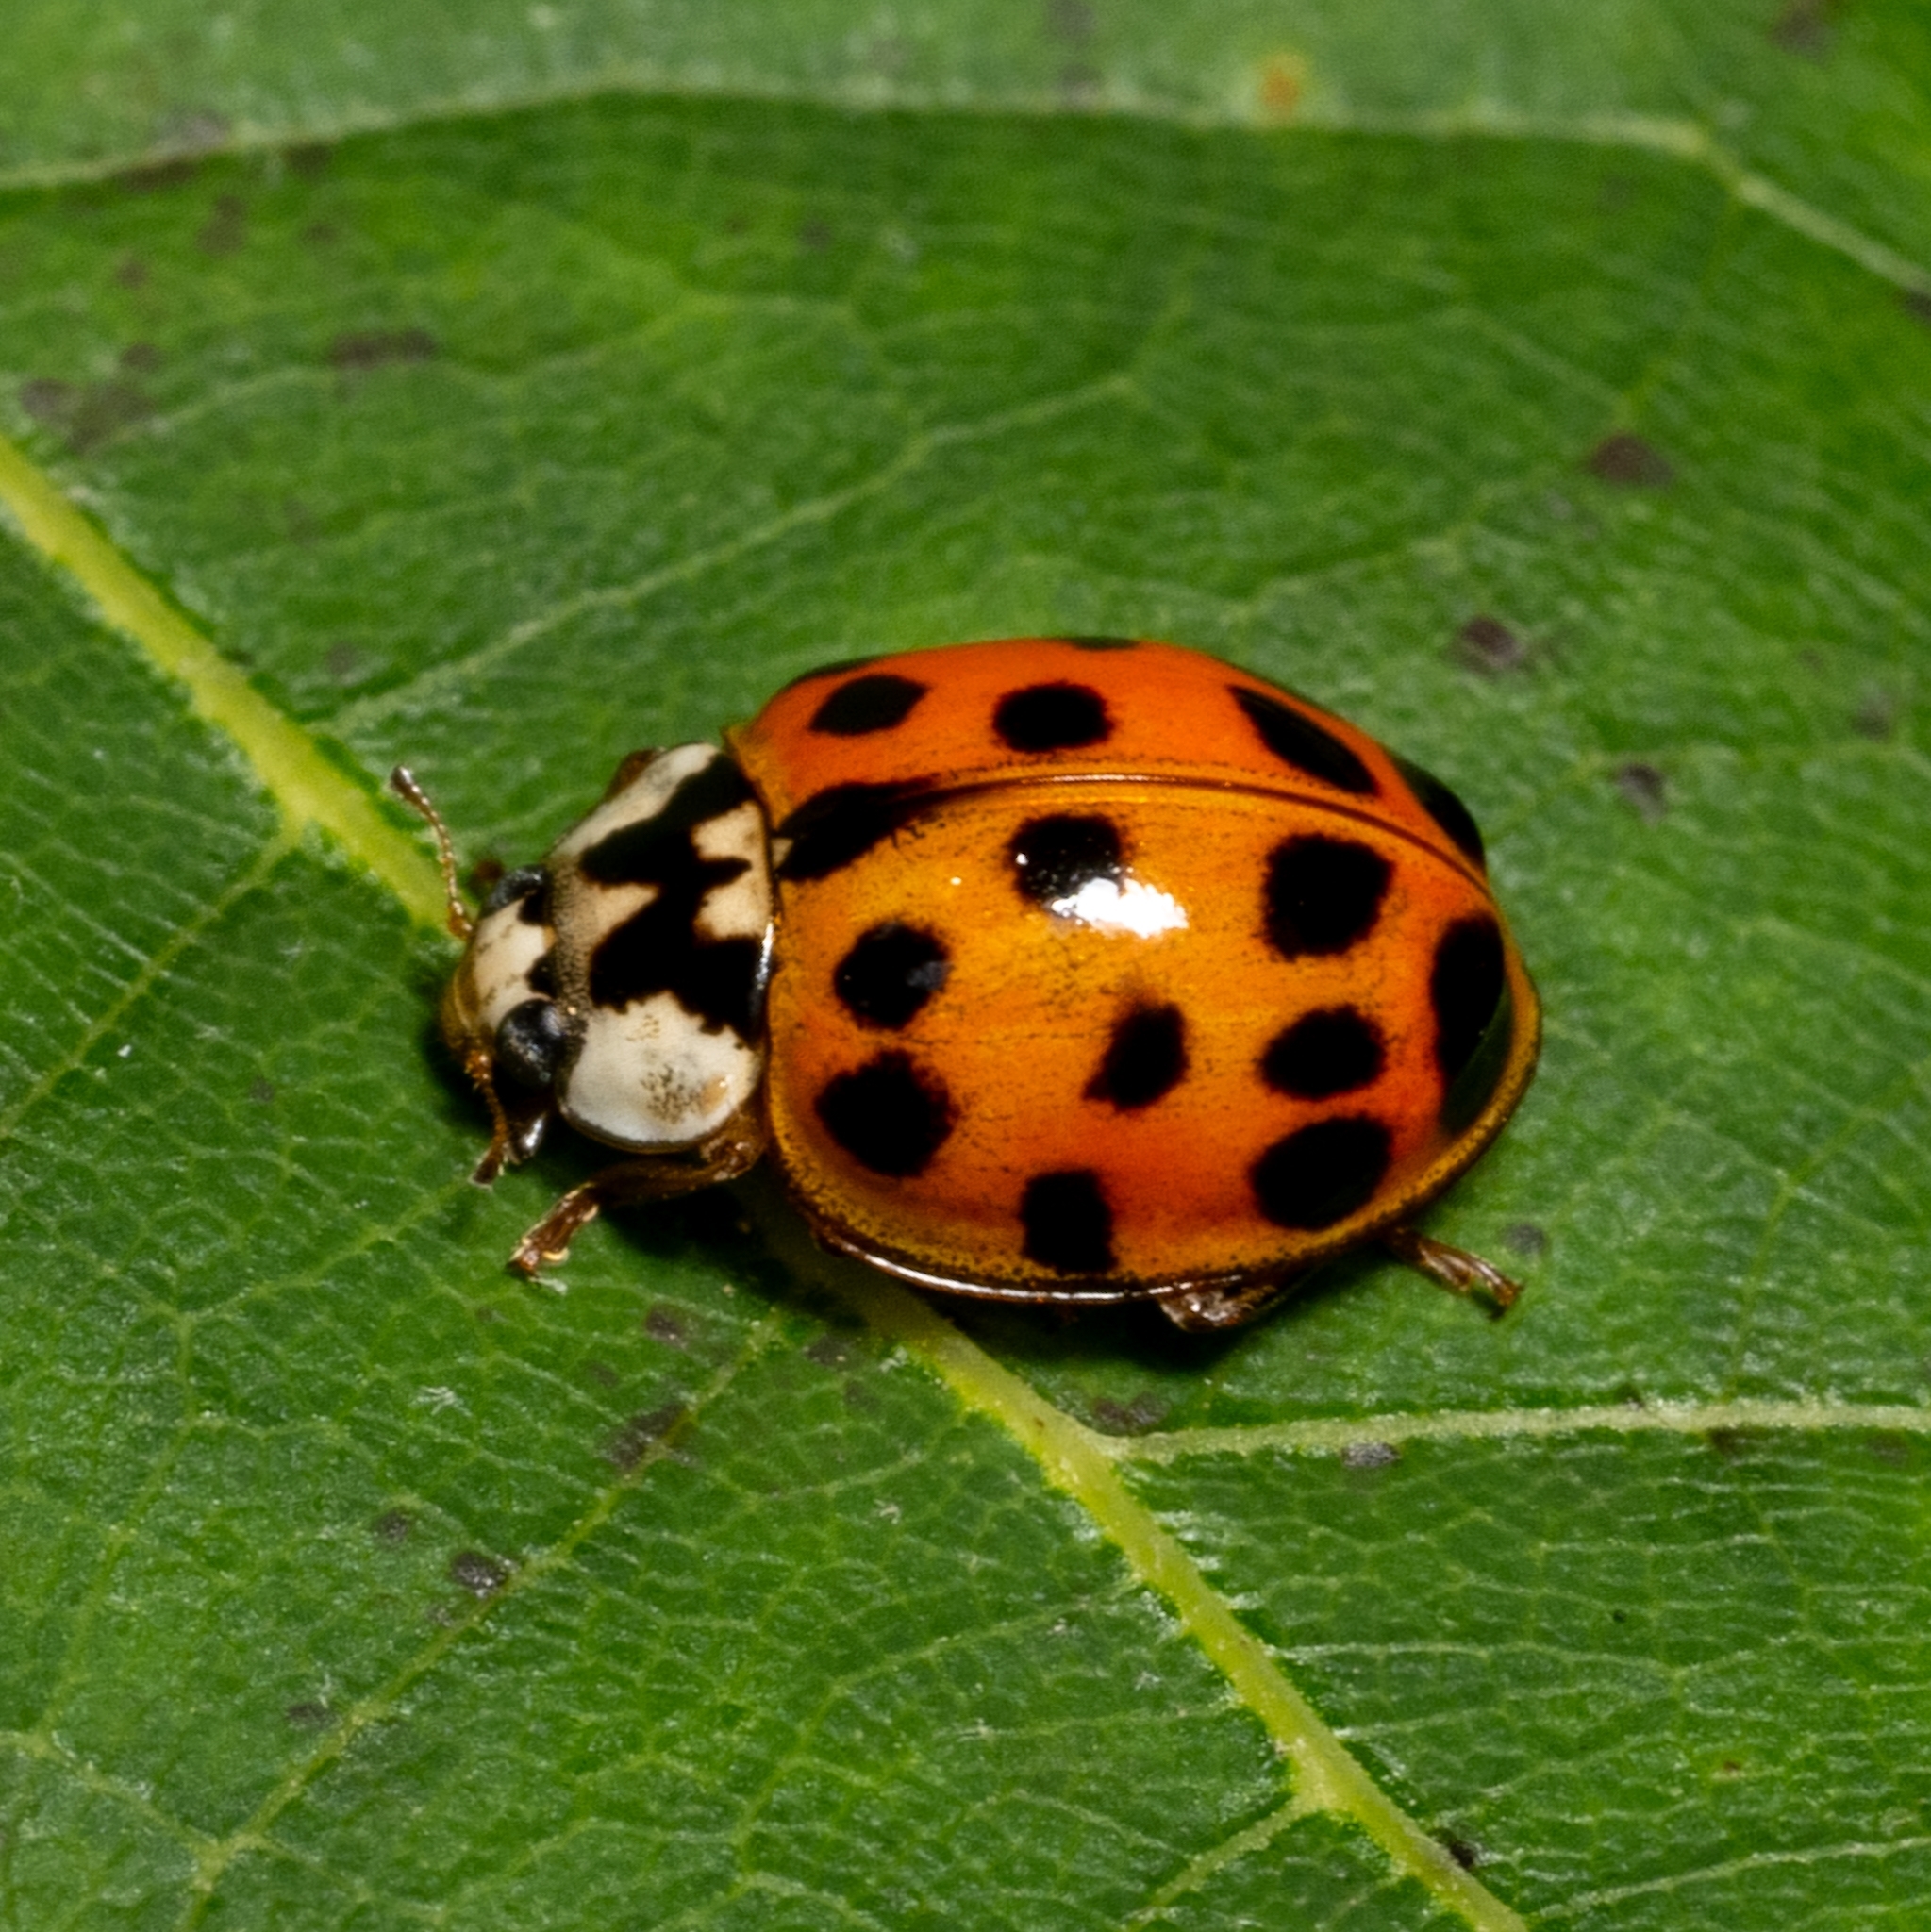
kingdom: Animalia
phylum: Arthropoda
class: Insecta
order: Coleoptera
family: Coccinellidae
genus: Harmonia
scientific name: Harmonia axyridis
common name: Harlequin ladybird
